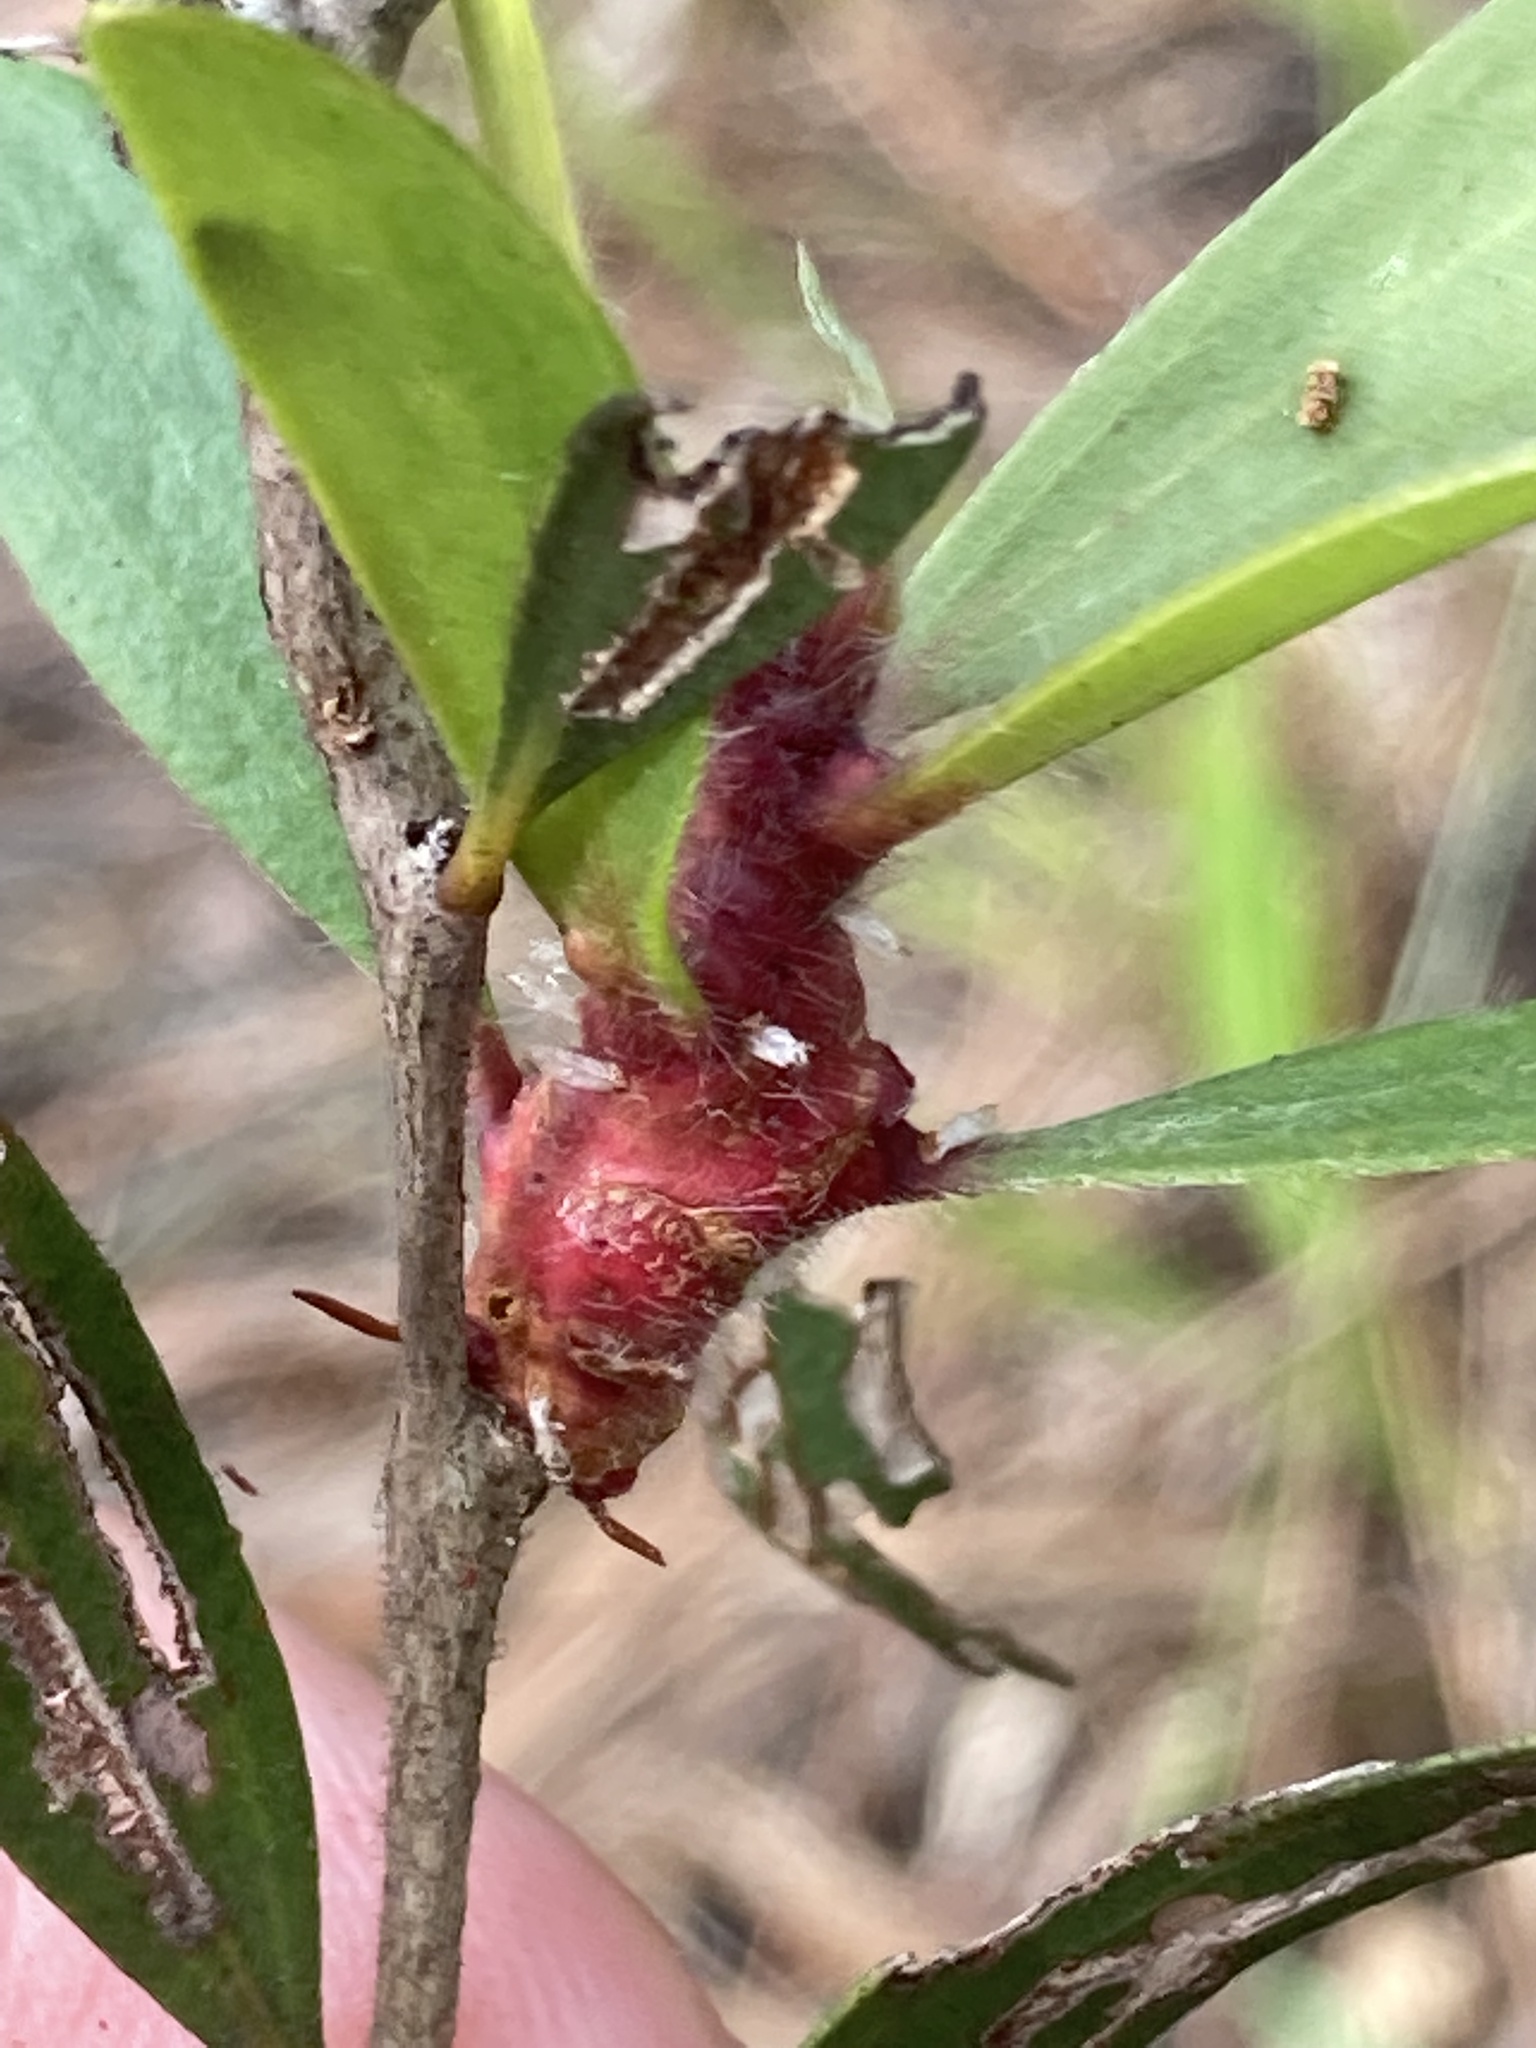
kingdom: Plantae
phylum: Tracheophyta
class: Magnoliopsida
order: Myrtales
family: Myrtaceae
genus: Melaleuca
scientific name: Melaleuca quinquenervia
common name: Punktree
